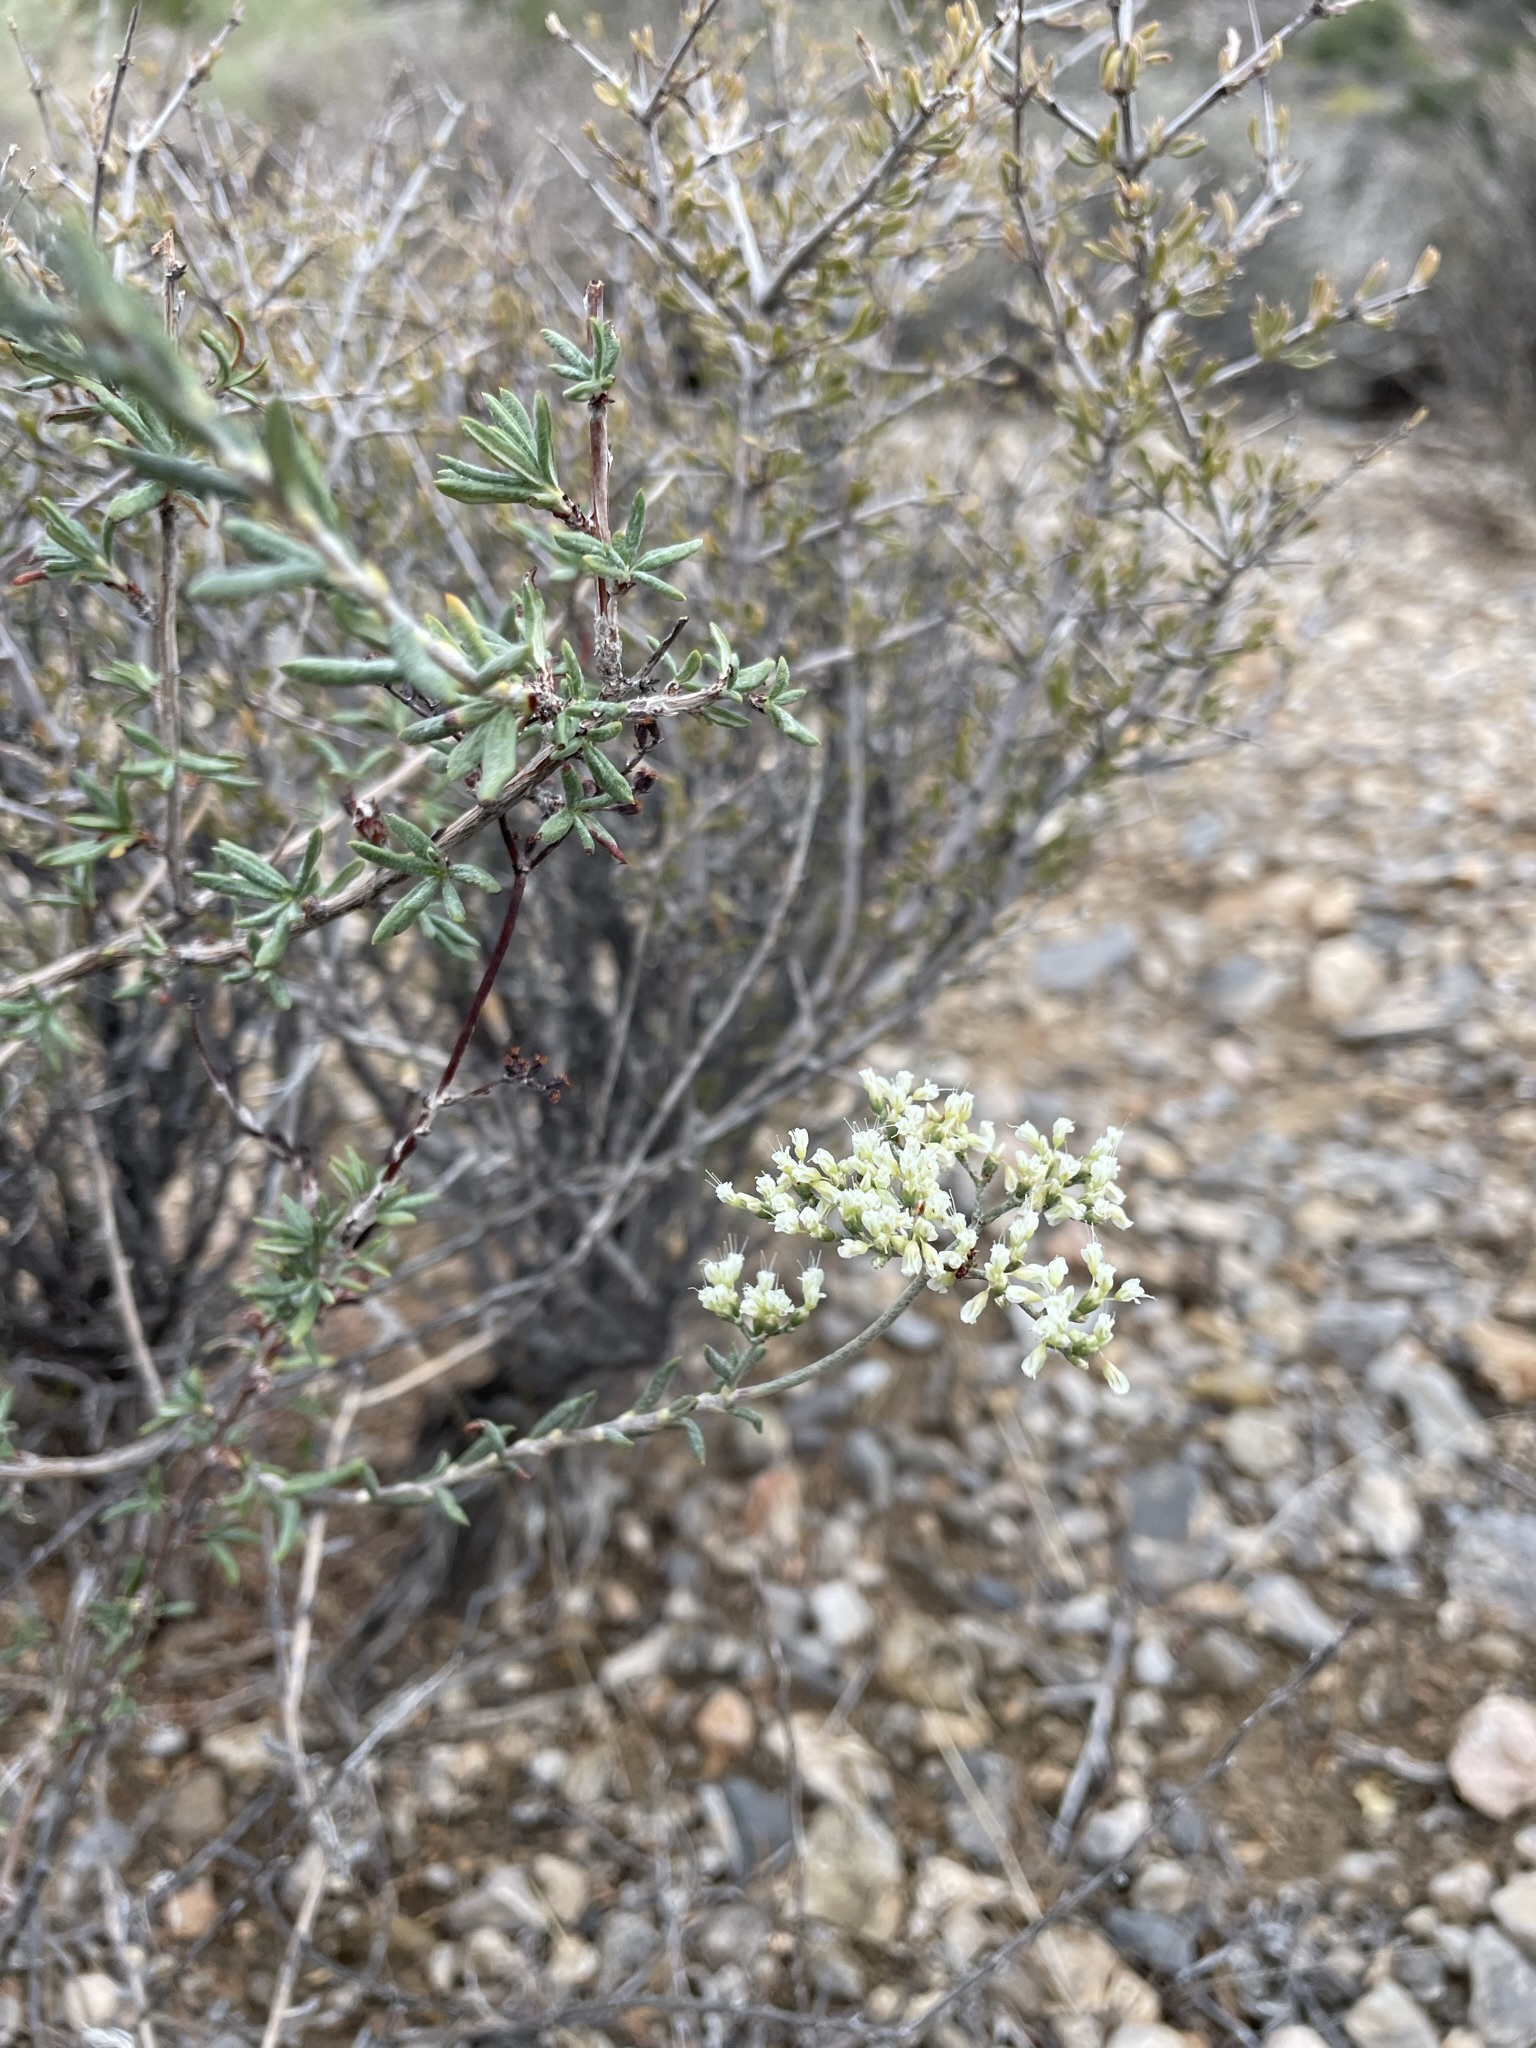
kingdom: Plantae
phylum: Tracheophyta
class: Magnoliopsida
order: Caryophyllales
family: Polygonaceae
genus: Eriogonum
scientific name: Eriogonum microtheca
